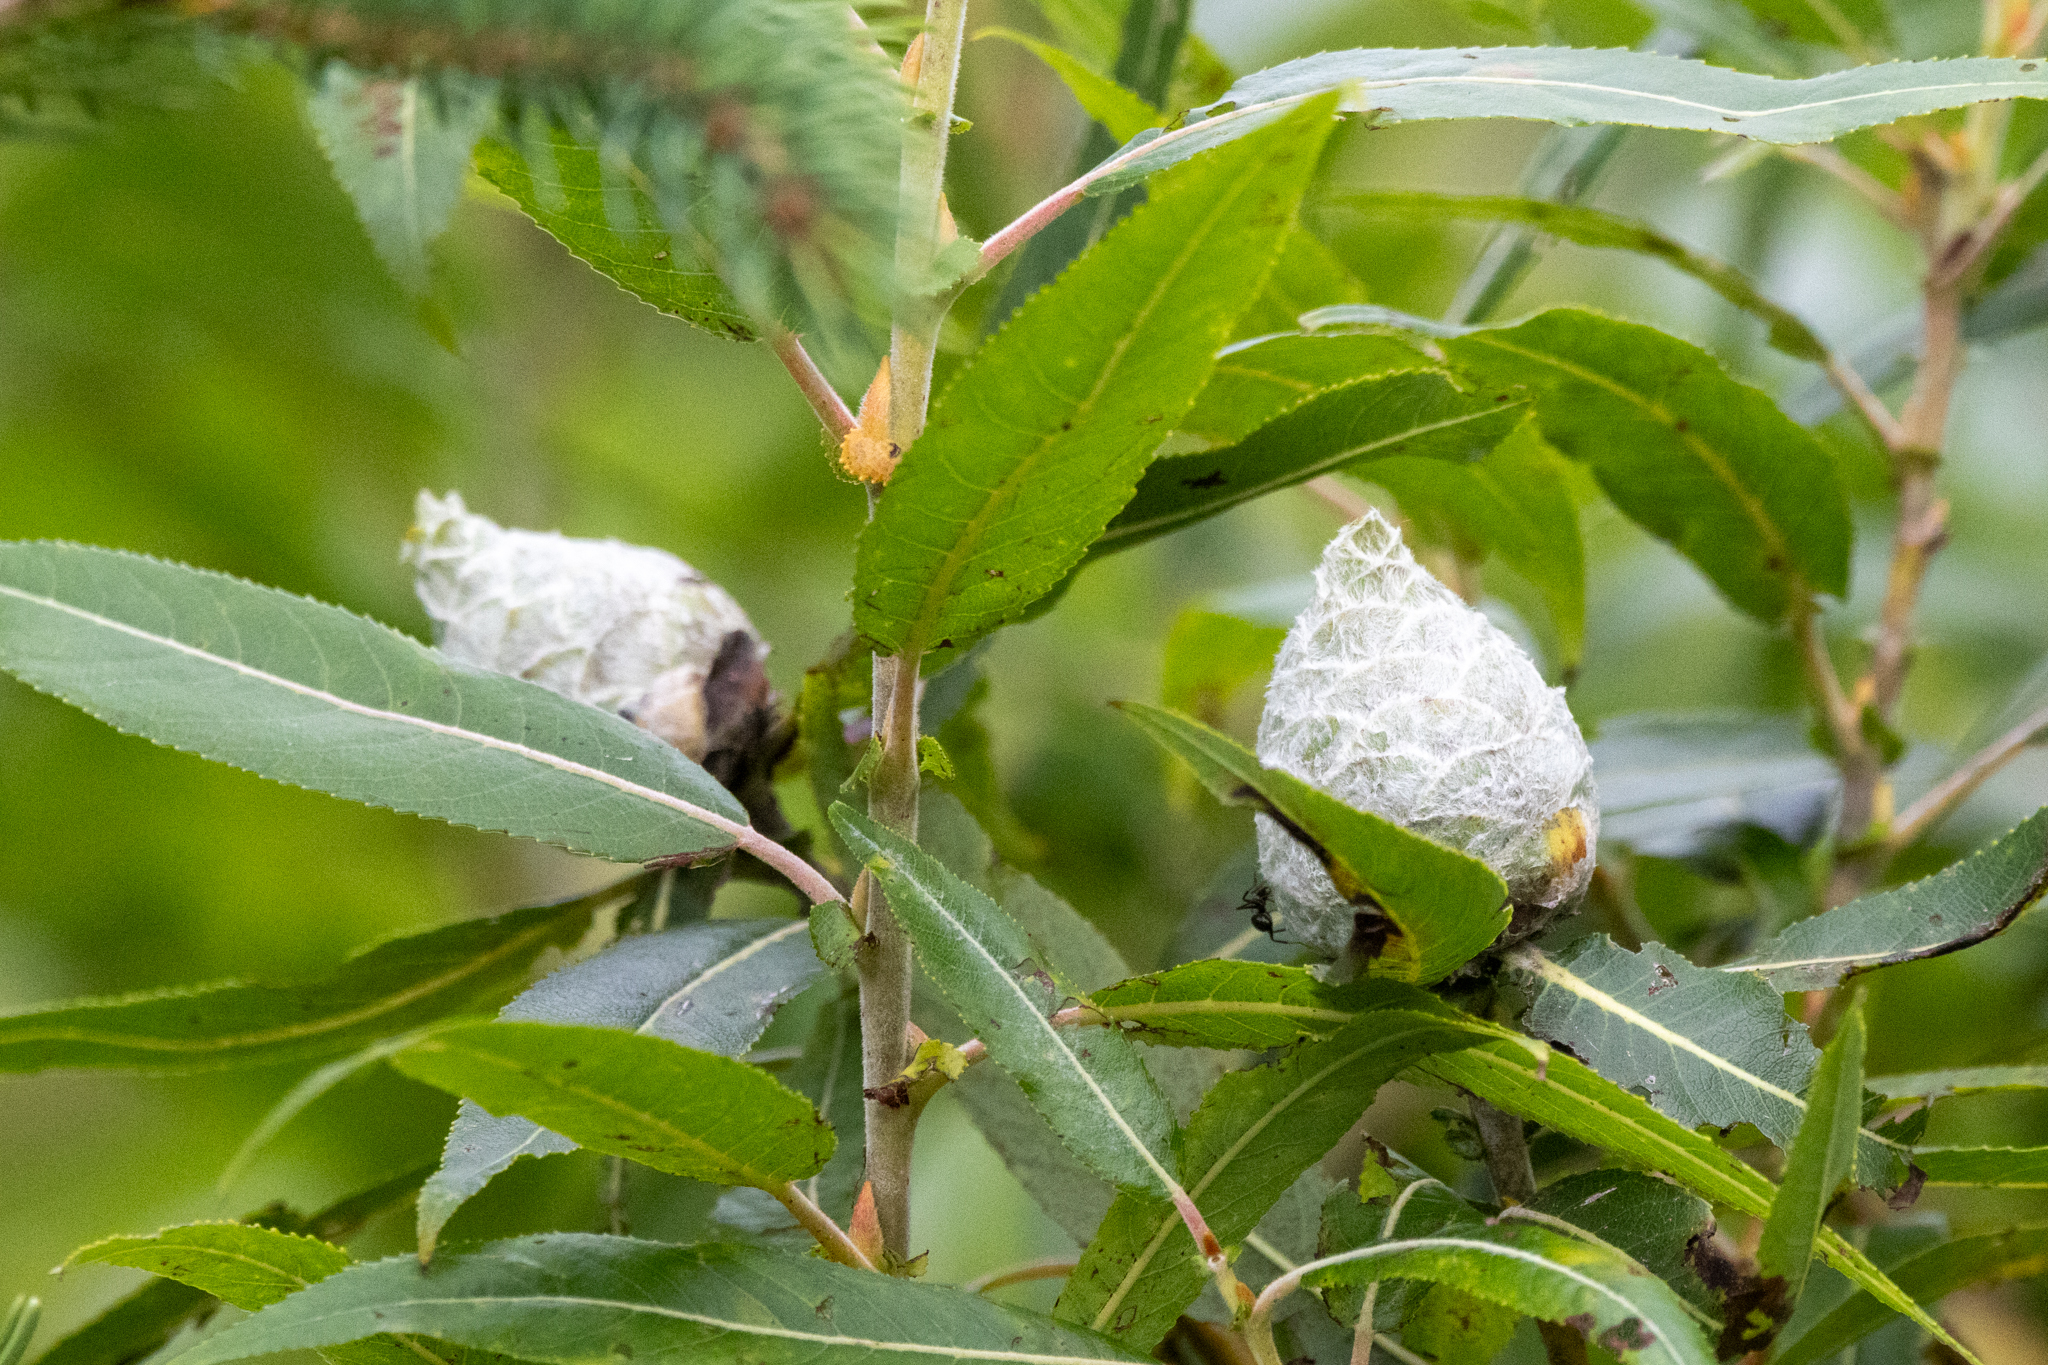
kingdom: Animalia
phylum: Arthropoda
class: Insecta
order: Diptera
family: Cecidomyiidae
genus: Rabdophaga
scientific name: Rabdophaga strobiloides
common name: Willow pinecone gall midge
